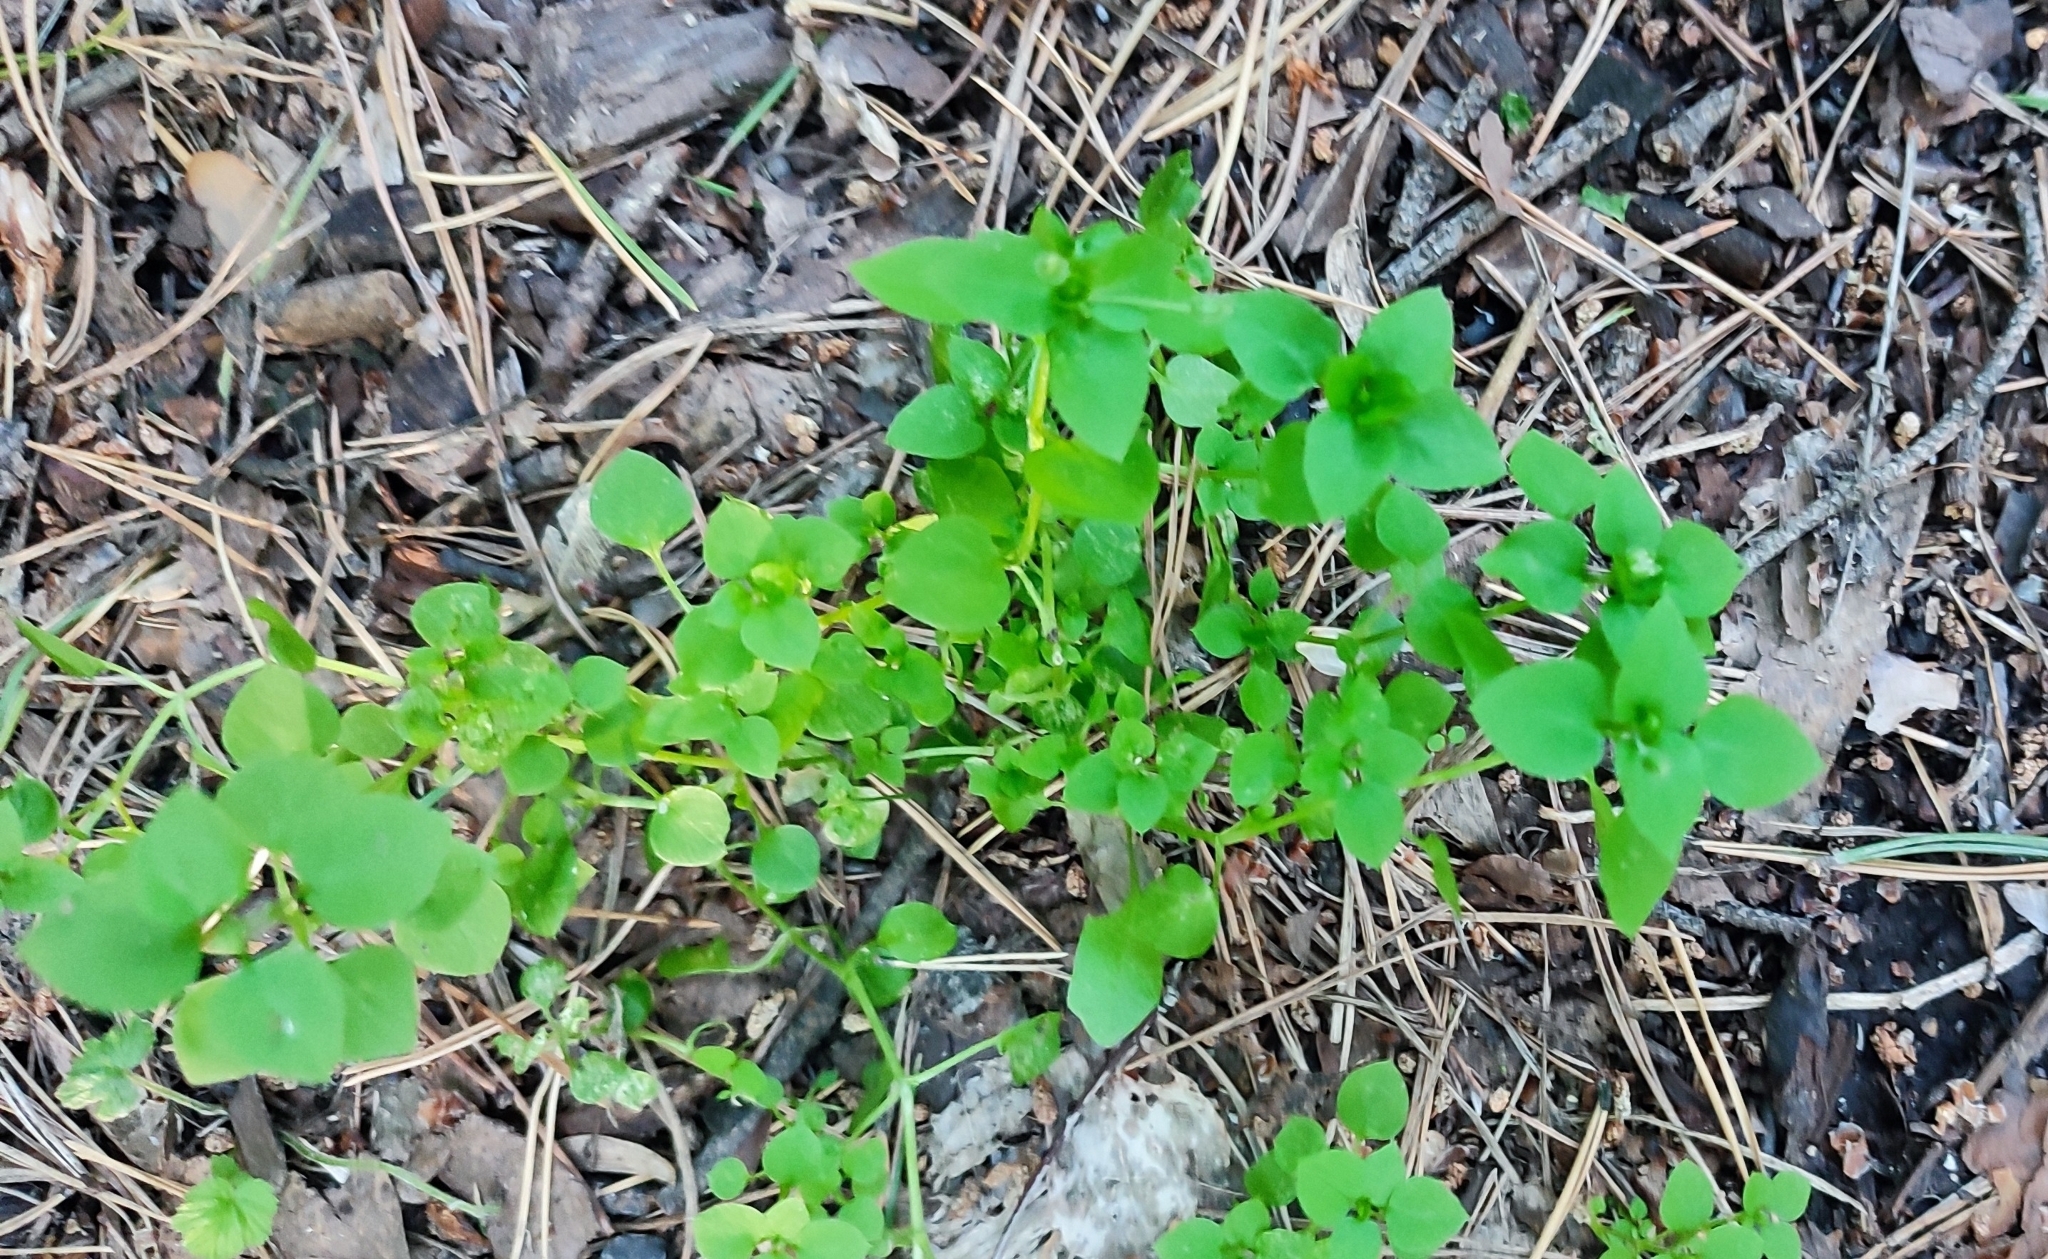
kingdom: Plantae
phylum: Tracheophyta
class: Magnoliopsida
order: Caryophyllales
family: Caryophyllaceae
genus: Stellaria
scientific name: Stellaria media
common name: Common chickweed
